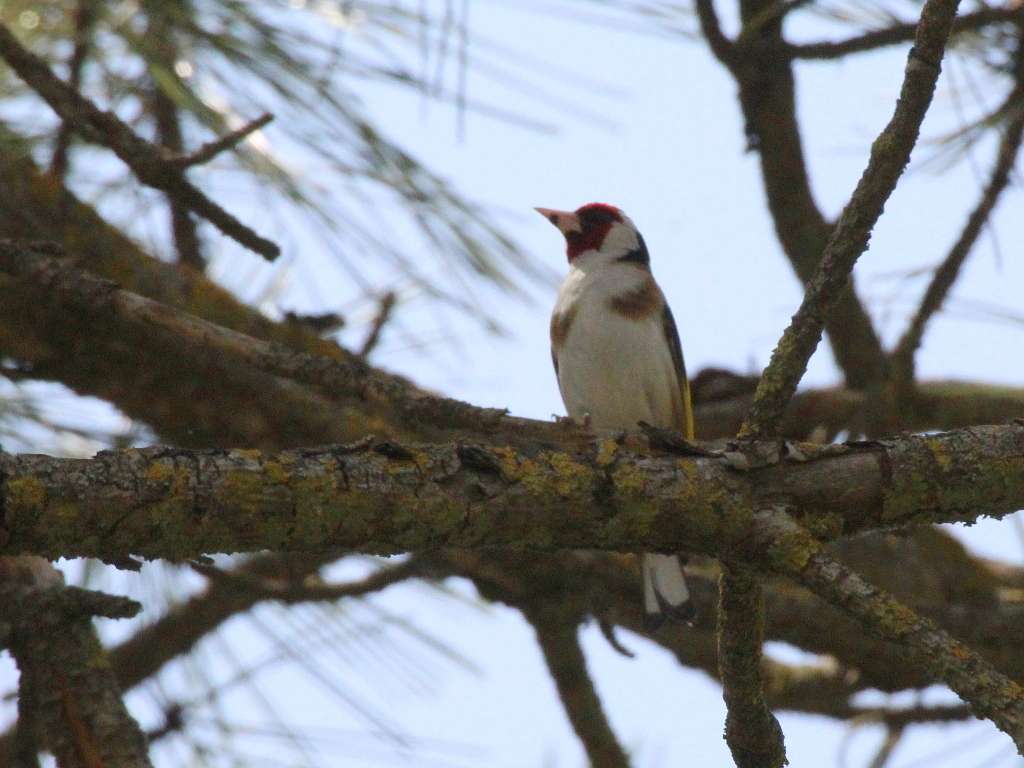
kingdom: Animalia
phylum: Chordata
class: Aves
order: Passeriformes
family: Fringillidae
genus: Carduelis
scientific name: Carduelis carduelis
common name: European goldfinch
